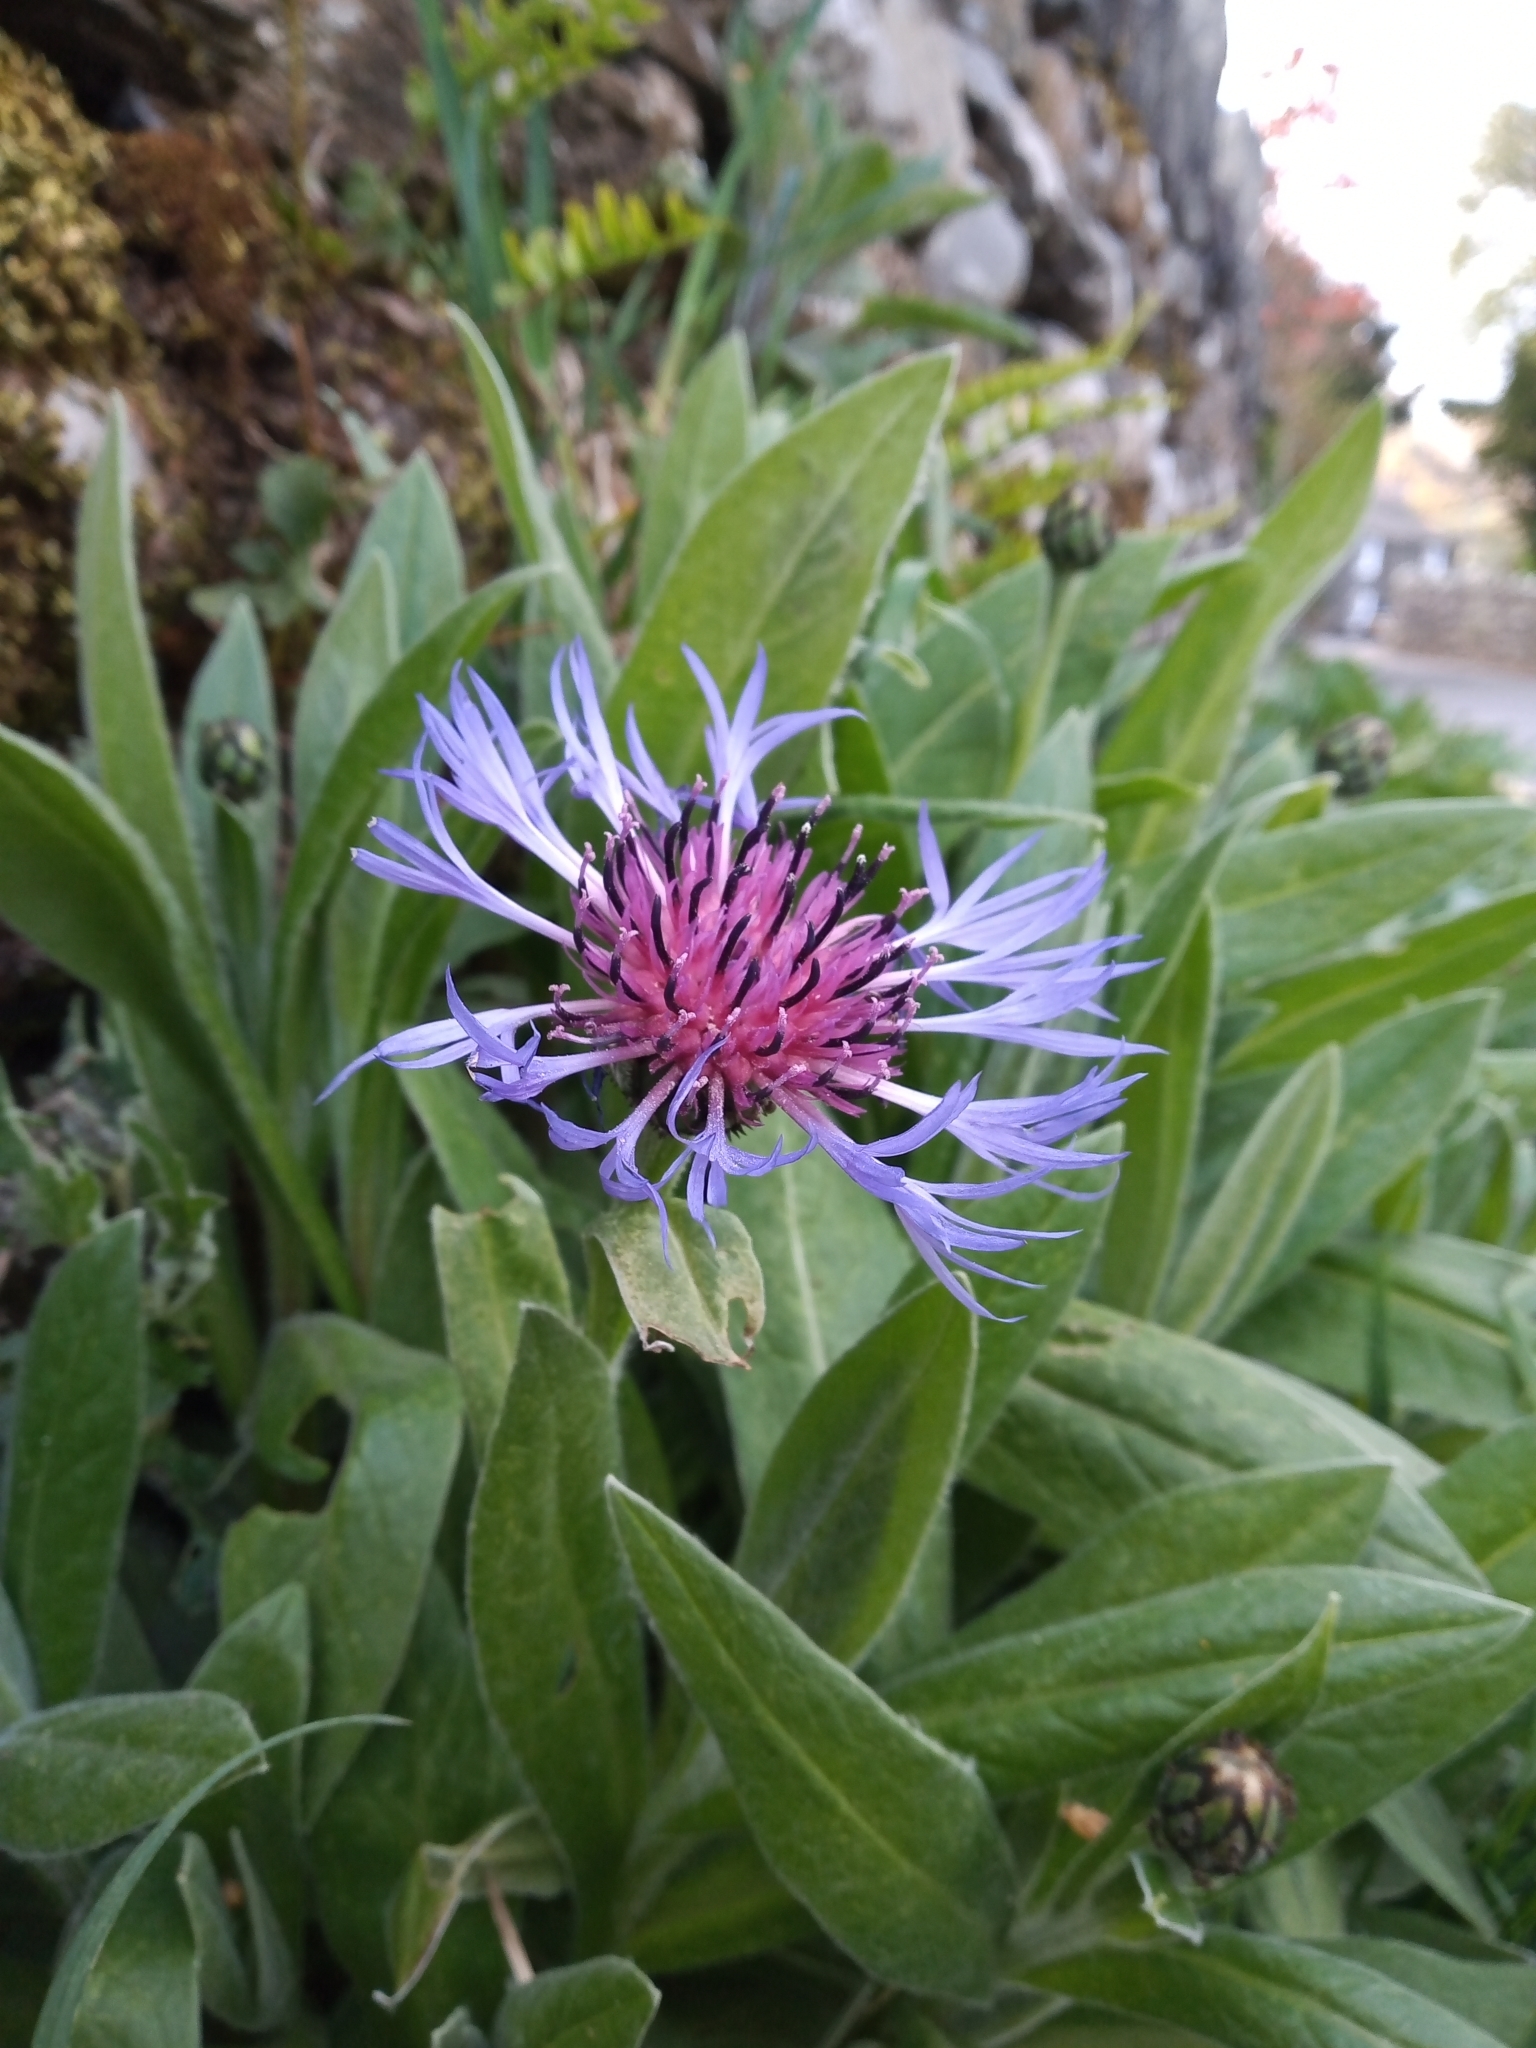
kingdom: Plantae
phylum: Tracheophyta
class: Magnoliopsida
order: Asterales
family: Asteraceae
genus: Centaurea
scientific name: Centaurea montana
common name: Perennial cornflower
